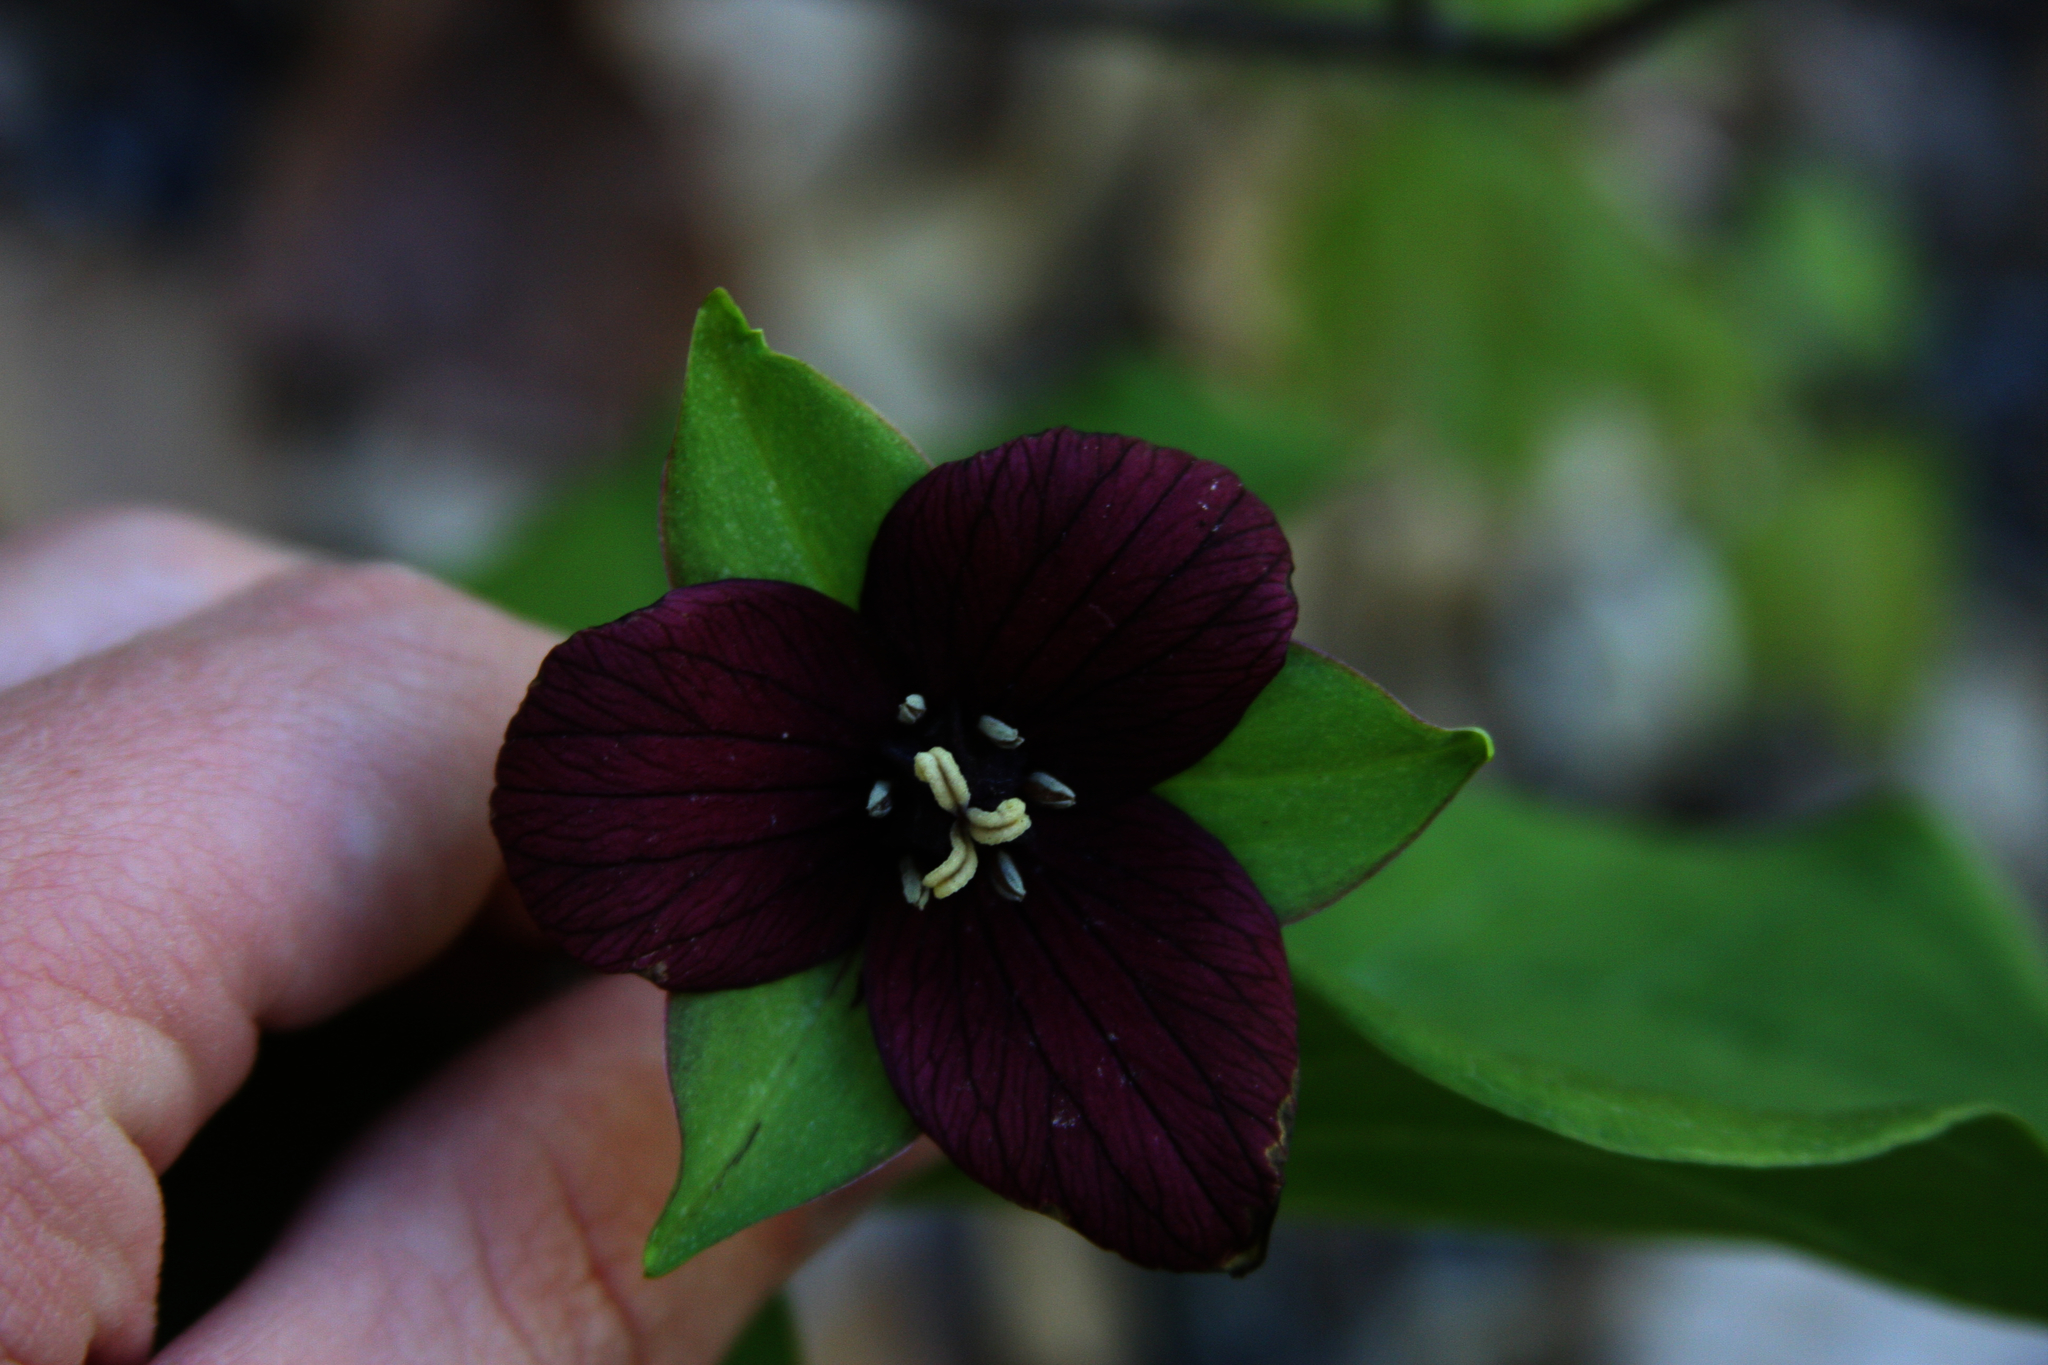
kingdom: Plantae
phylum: Tracheophyta
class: Liliopsida
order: Liliales
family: Melanthiaceae
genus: Trillium
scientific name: Trillium erectum
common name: Purple trillium
